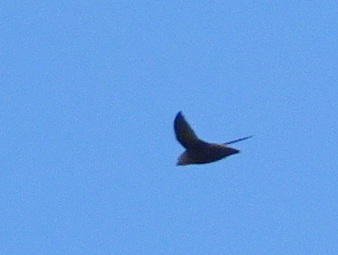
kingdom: Animalia
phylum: Chordata
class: Aves
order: Apodiformes
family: Apodidae
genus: Chaetura
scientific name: Chaetura pelagica
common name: Chimney swift
